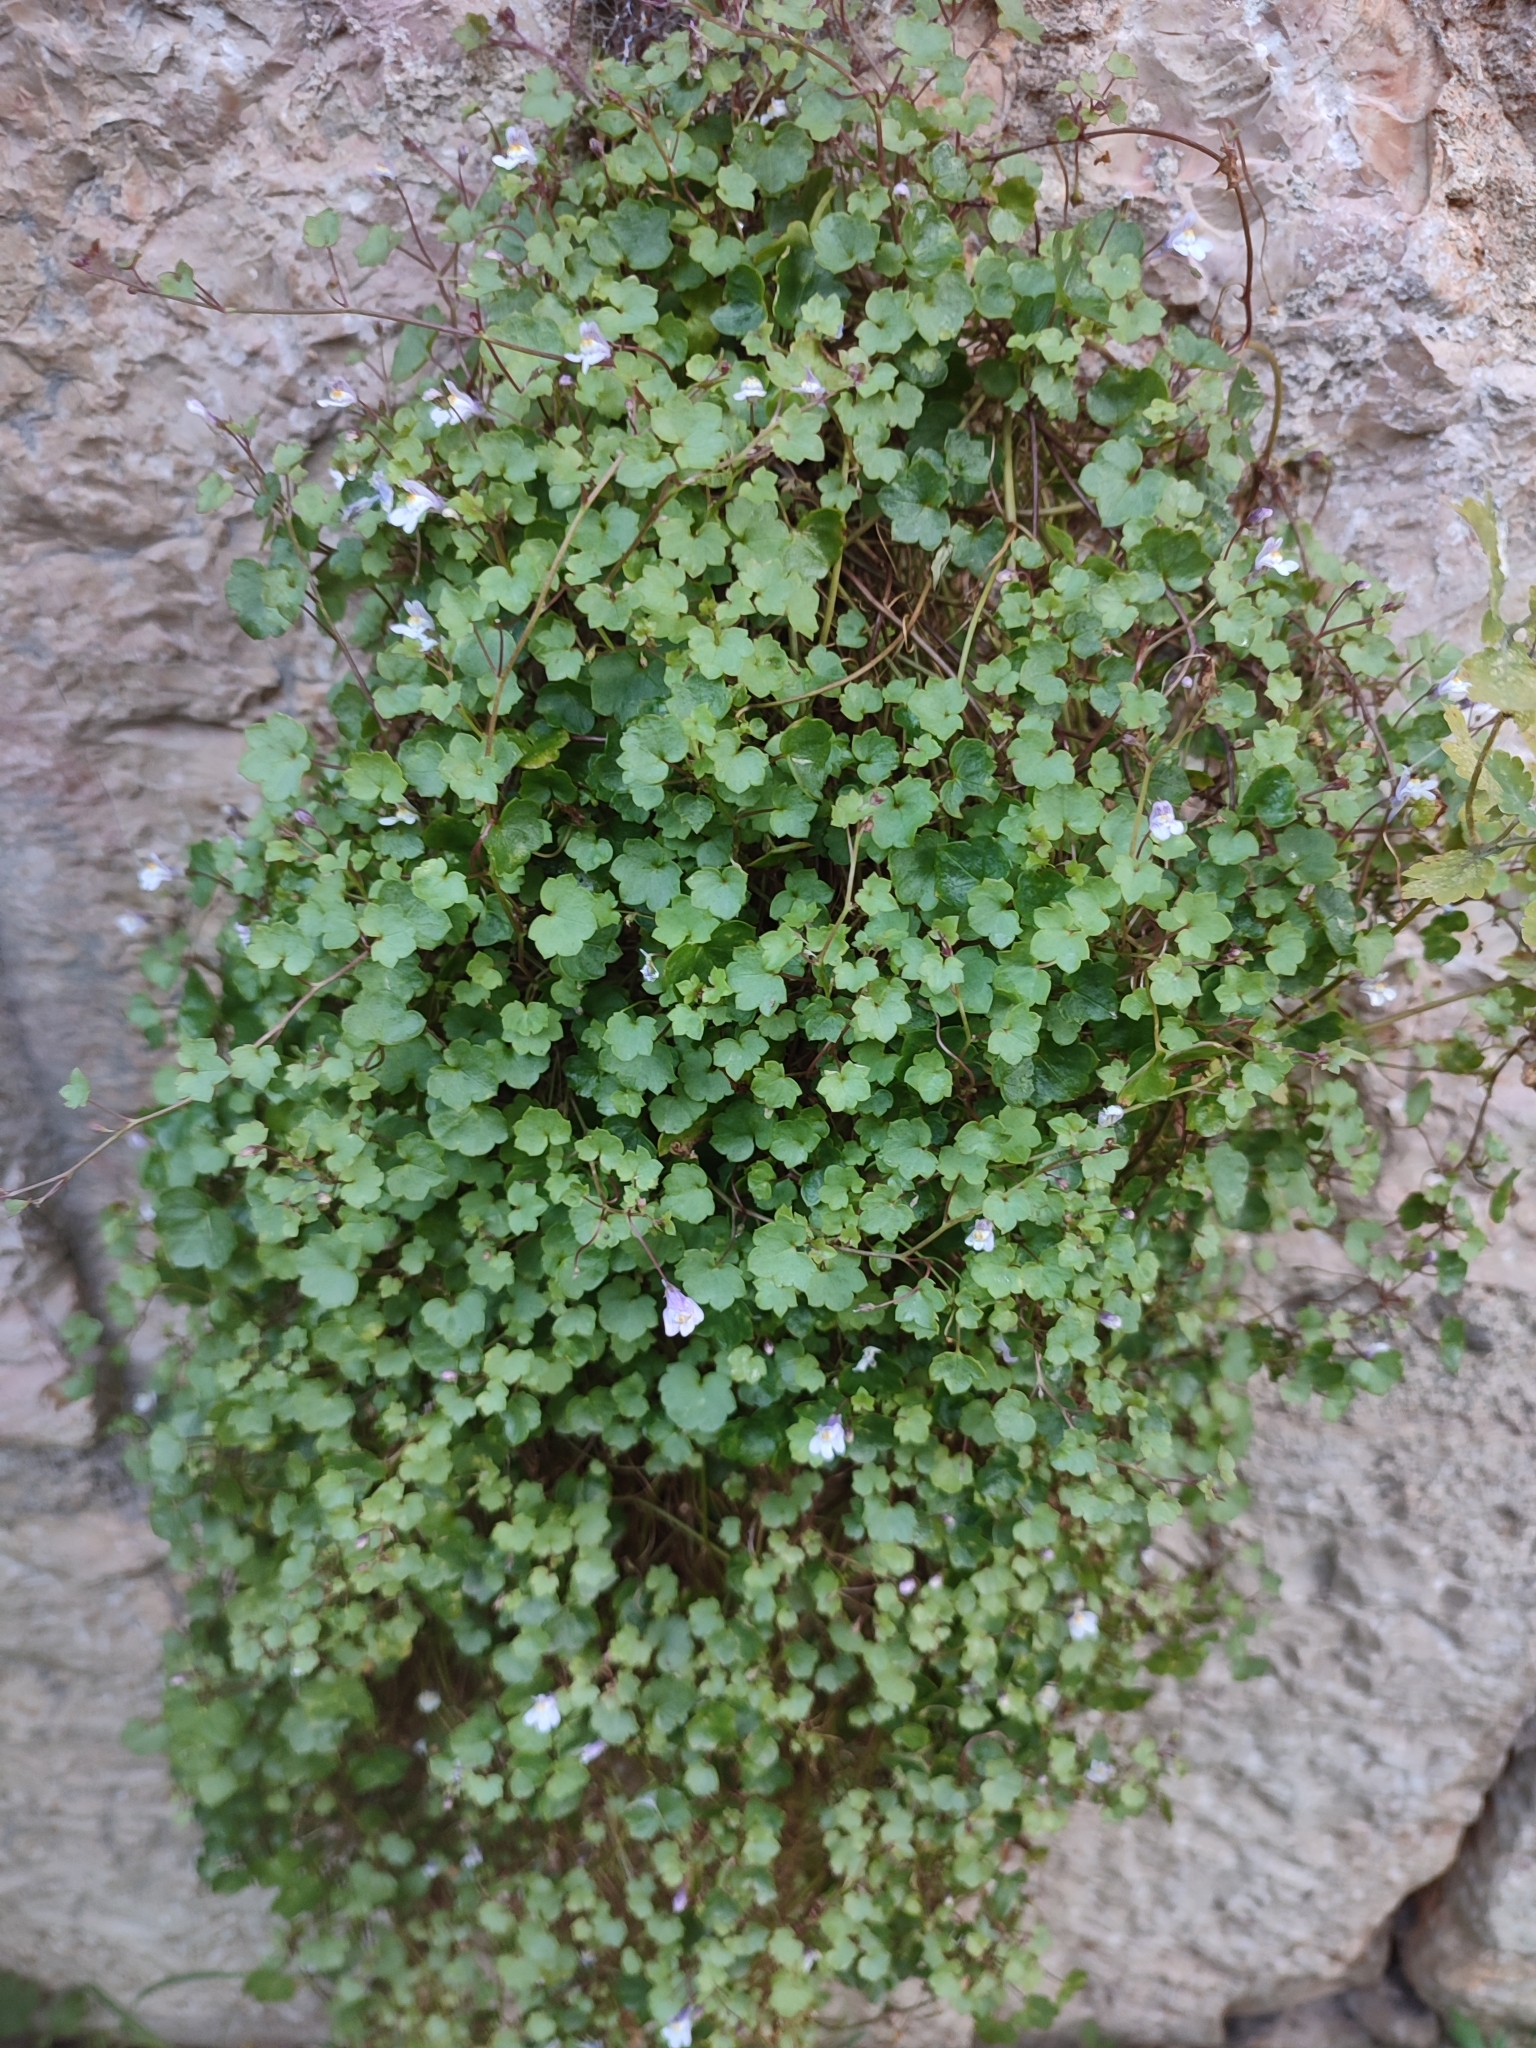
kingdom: Plantae
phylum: Tracheophyta
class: Magnoliopsida
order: Lamiales
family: Plantaginaceae
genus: Cymbalaria
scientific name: Cymbalaria muralis
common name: Ivy-leaved toadflax
